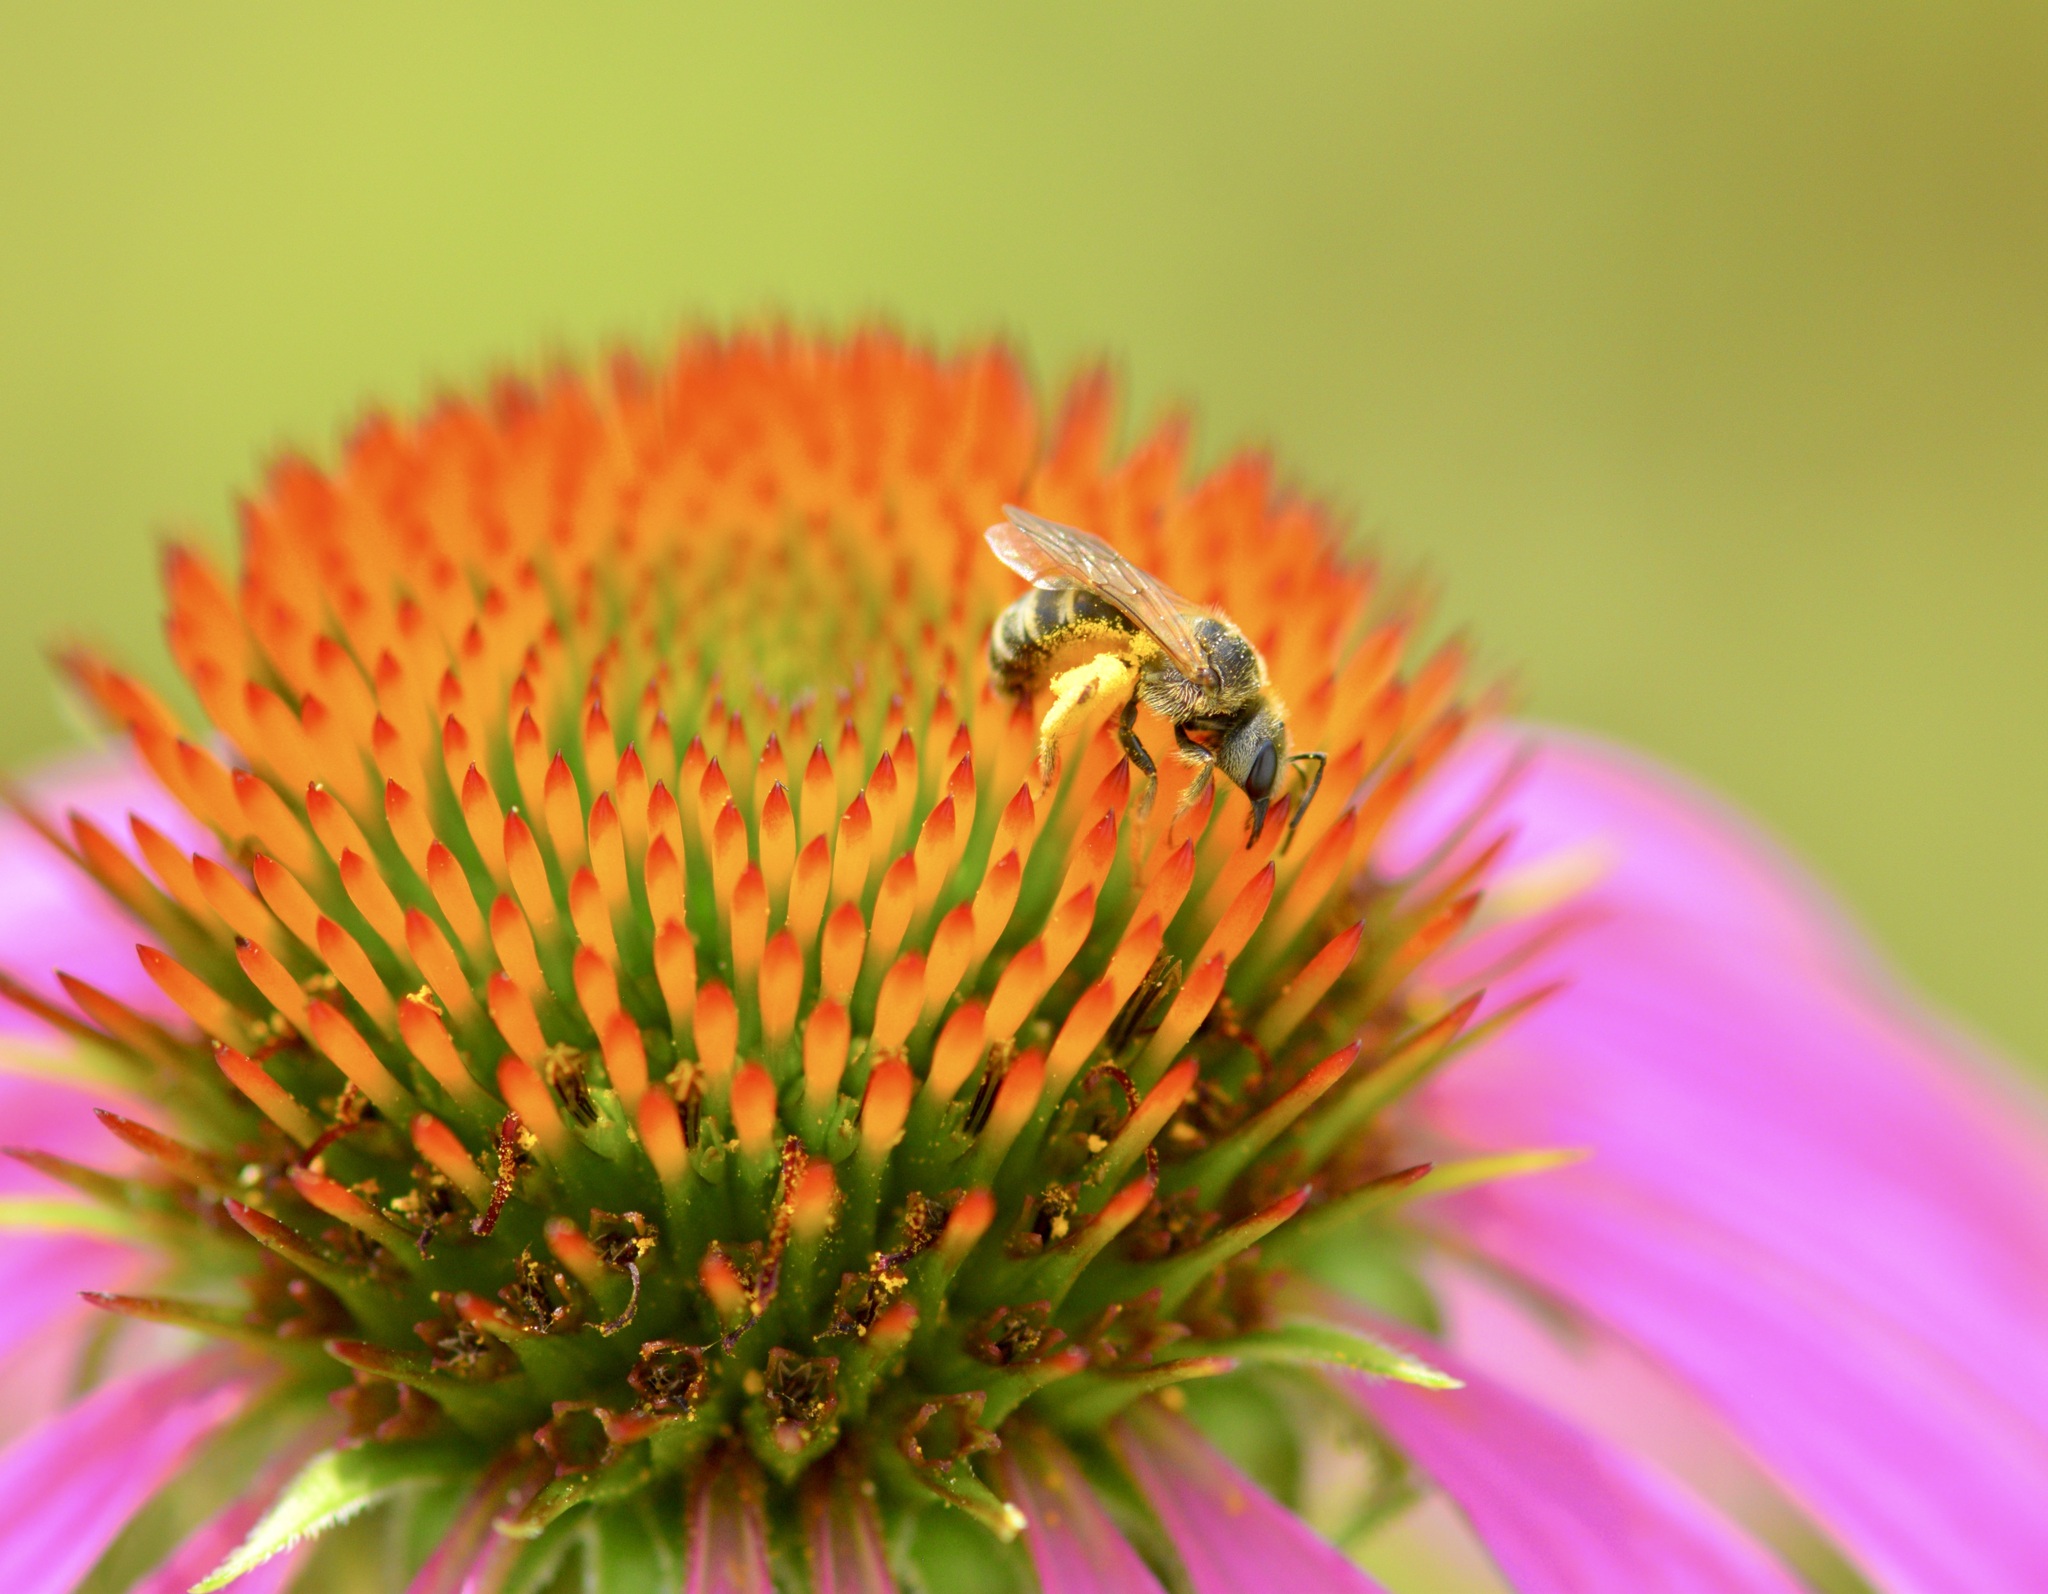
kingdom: Animalia
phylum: Arthropoda
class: Insecta
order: Hymenoptera
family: Halictidae
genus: Halictus
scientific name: Halictus ligatus
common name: Ligated furrow bee
